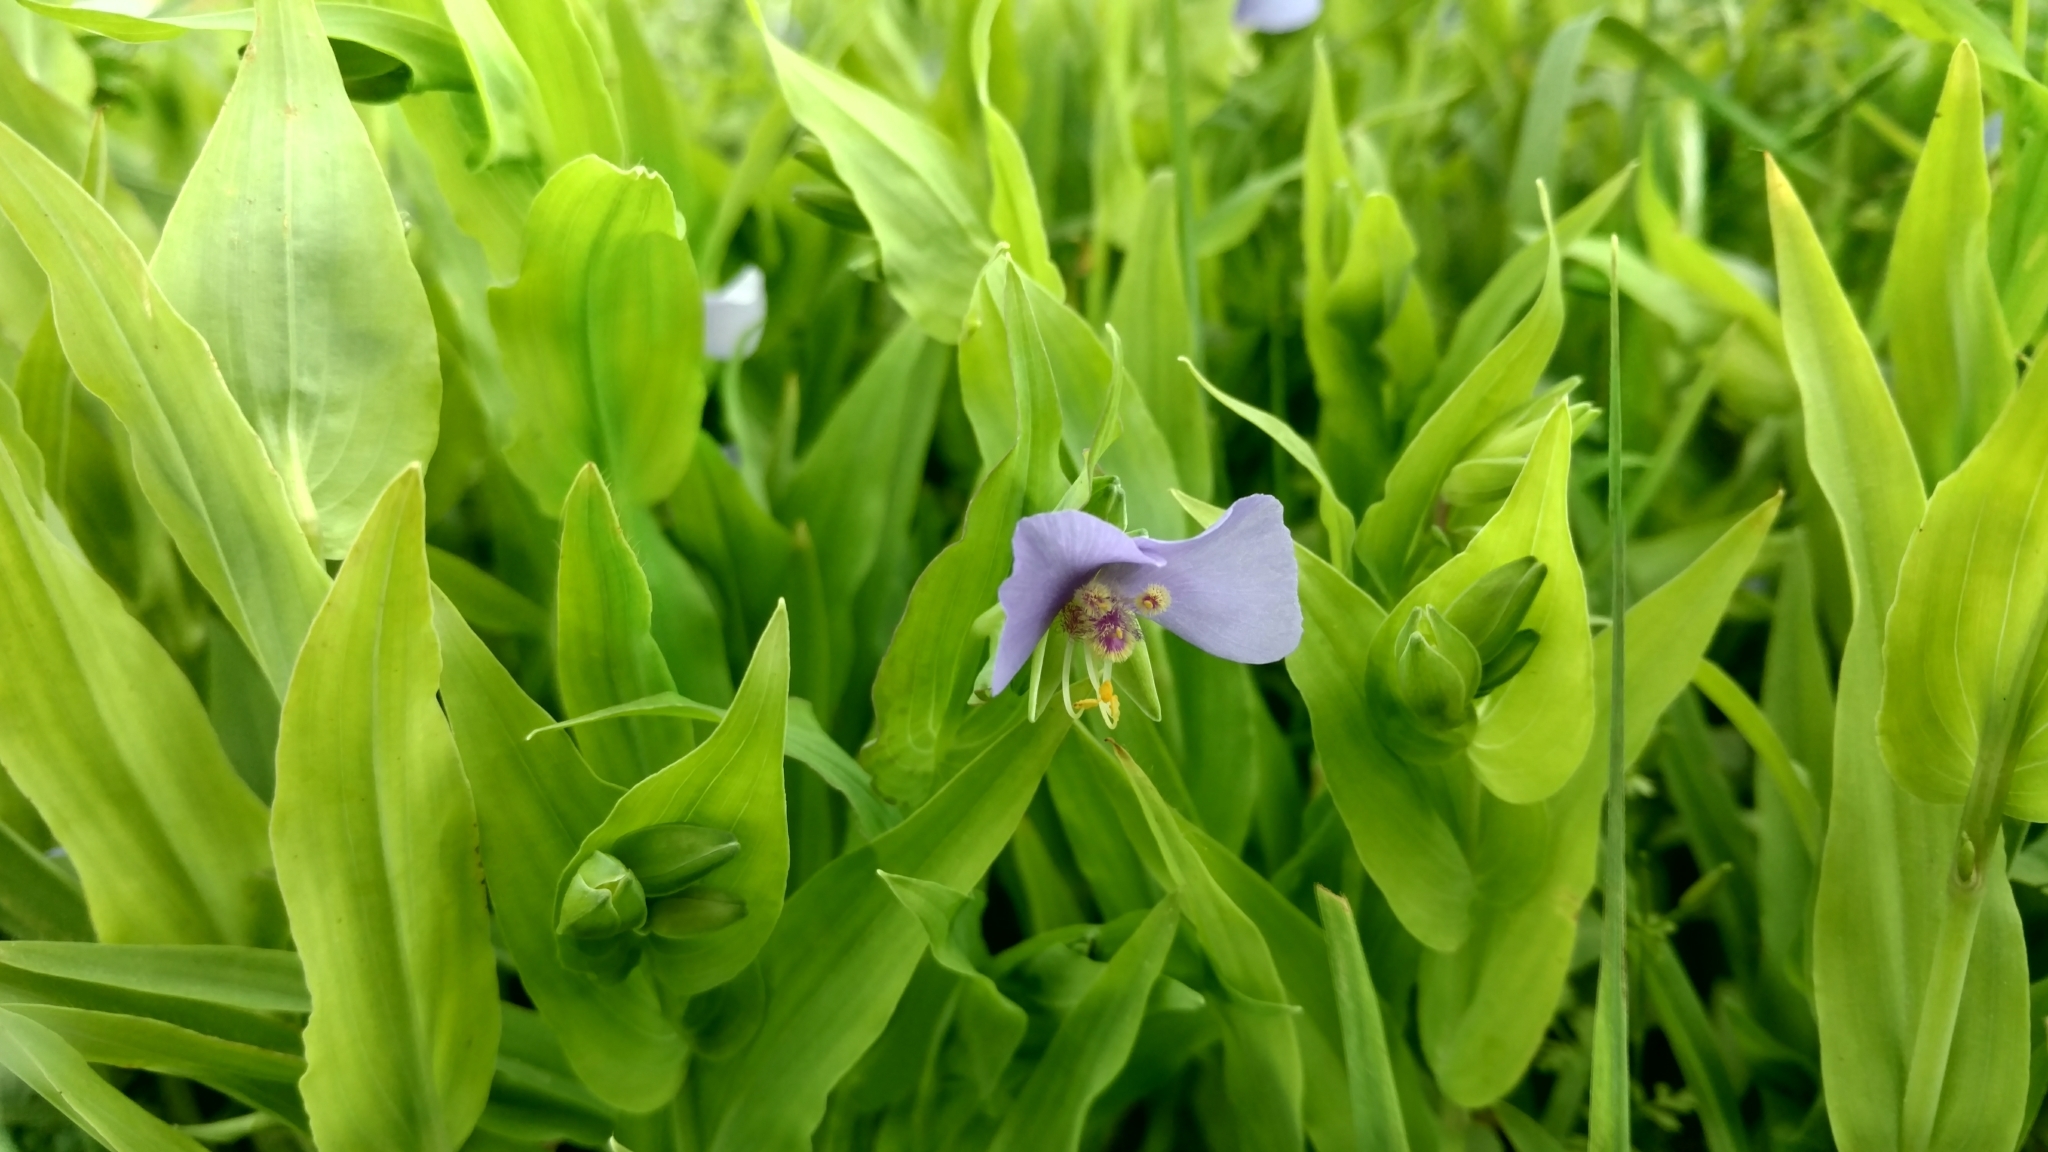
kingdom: Plantae
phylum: Tracheophyta
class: Liliopsida
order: Commelinales
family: Commelinaceae
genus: Tinantia
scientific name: Tinantia anomala
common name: False dayflower
